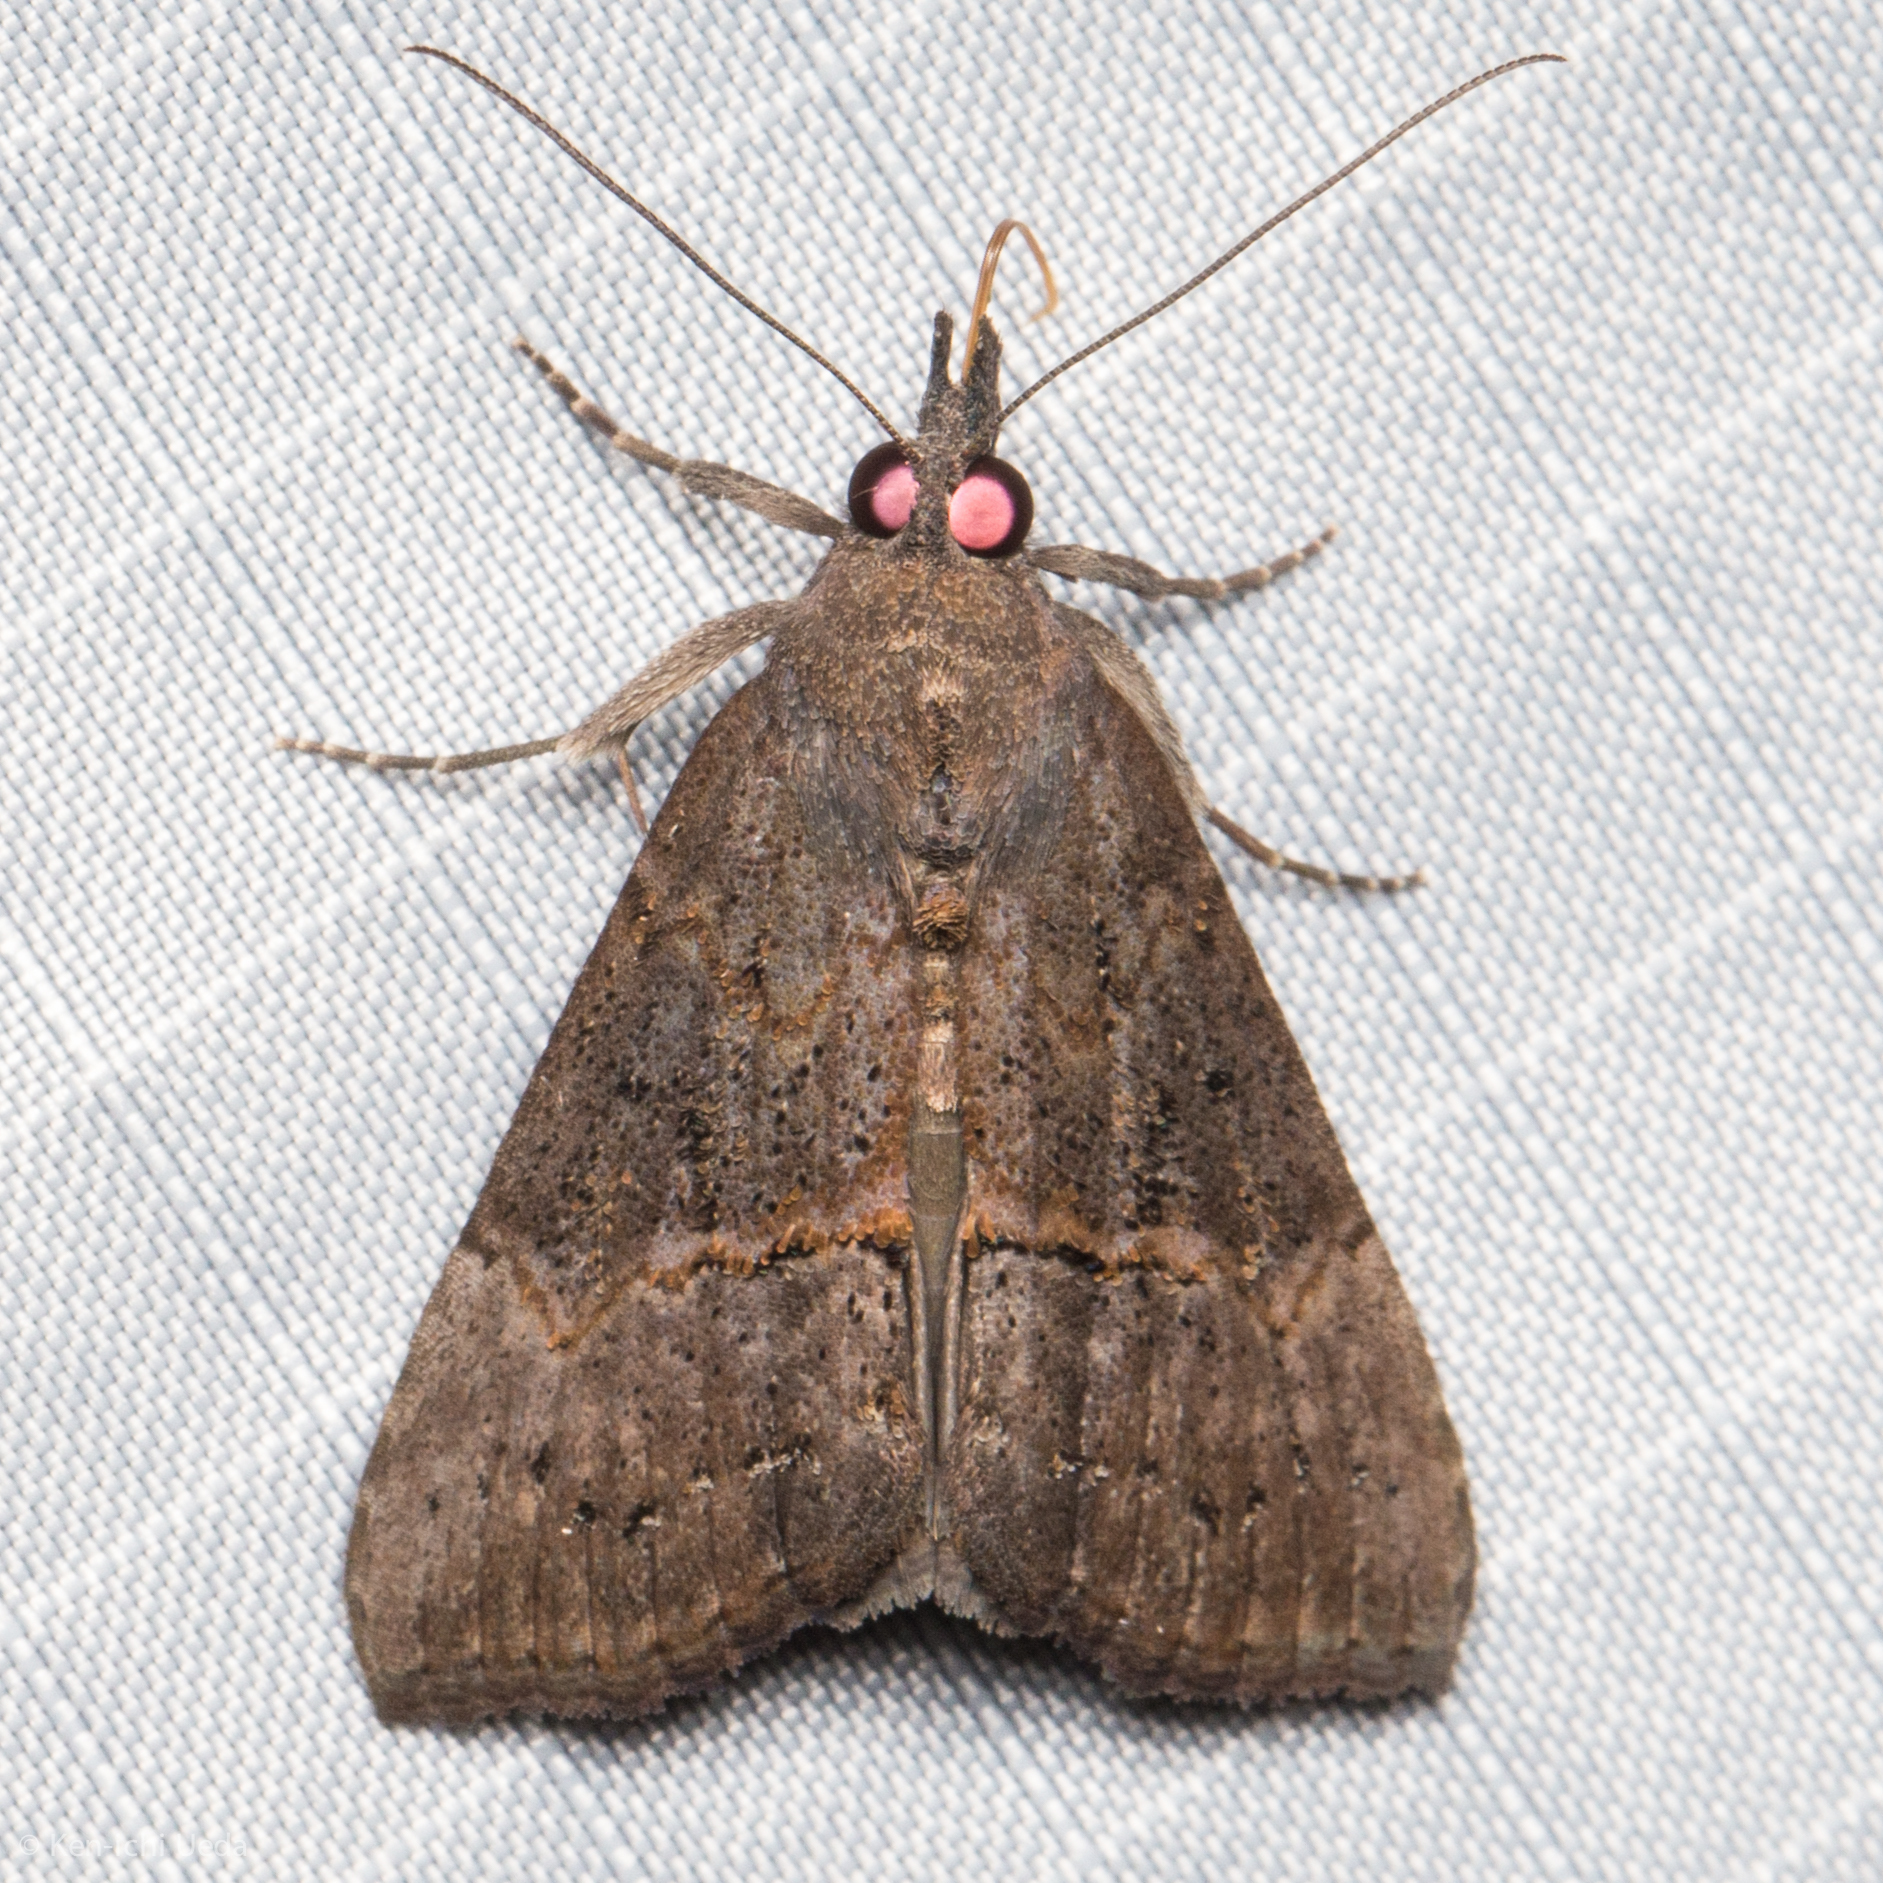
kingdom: Animalia
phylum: Arthropoda
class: Insecta
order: Lepidoptera
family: Erebidae
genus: Hypena
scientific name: Hypena scabra
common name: Green cloverworm
